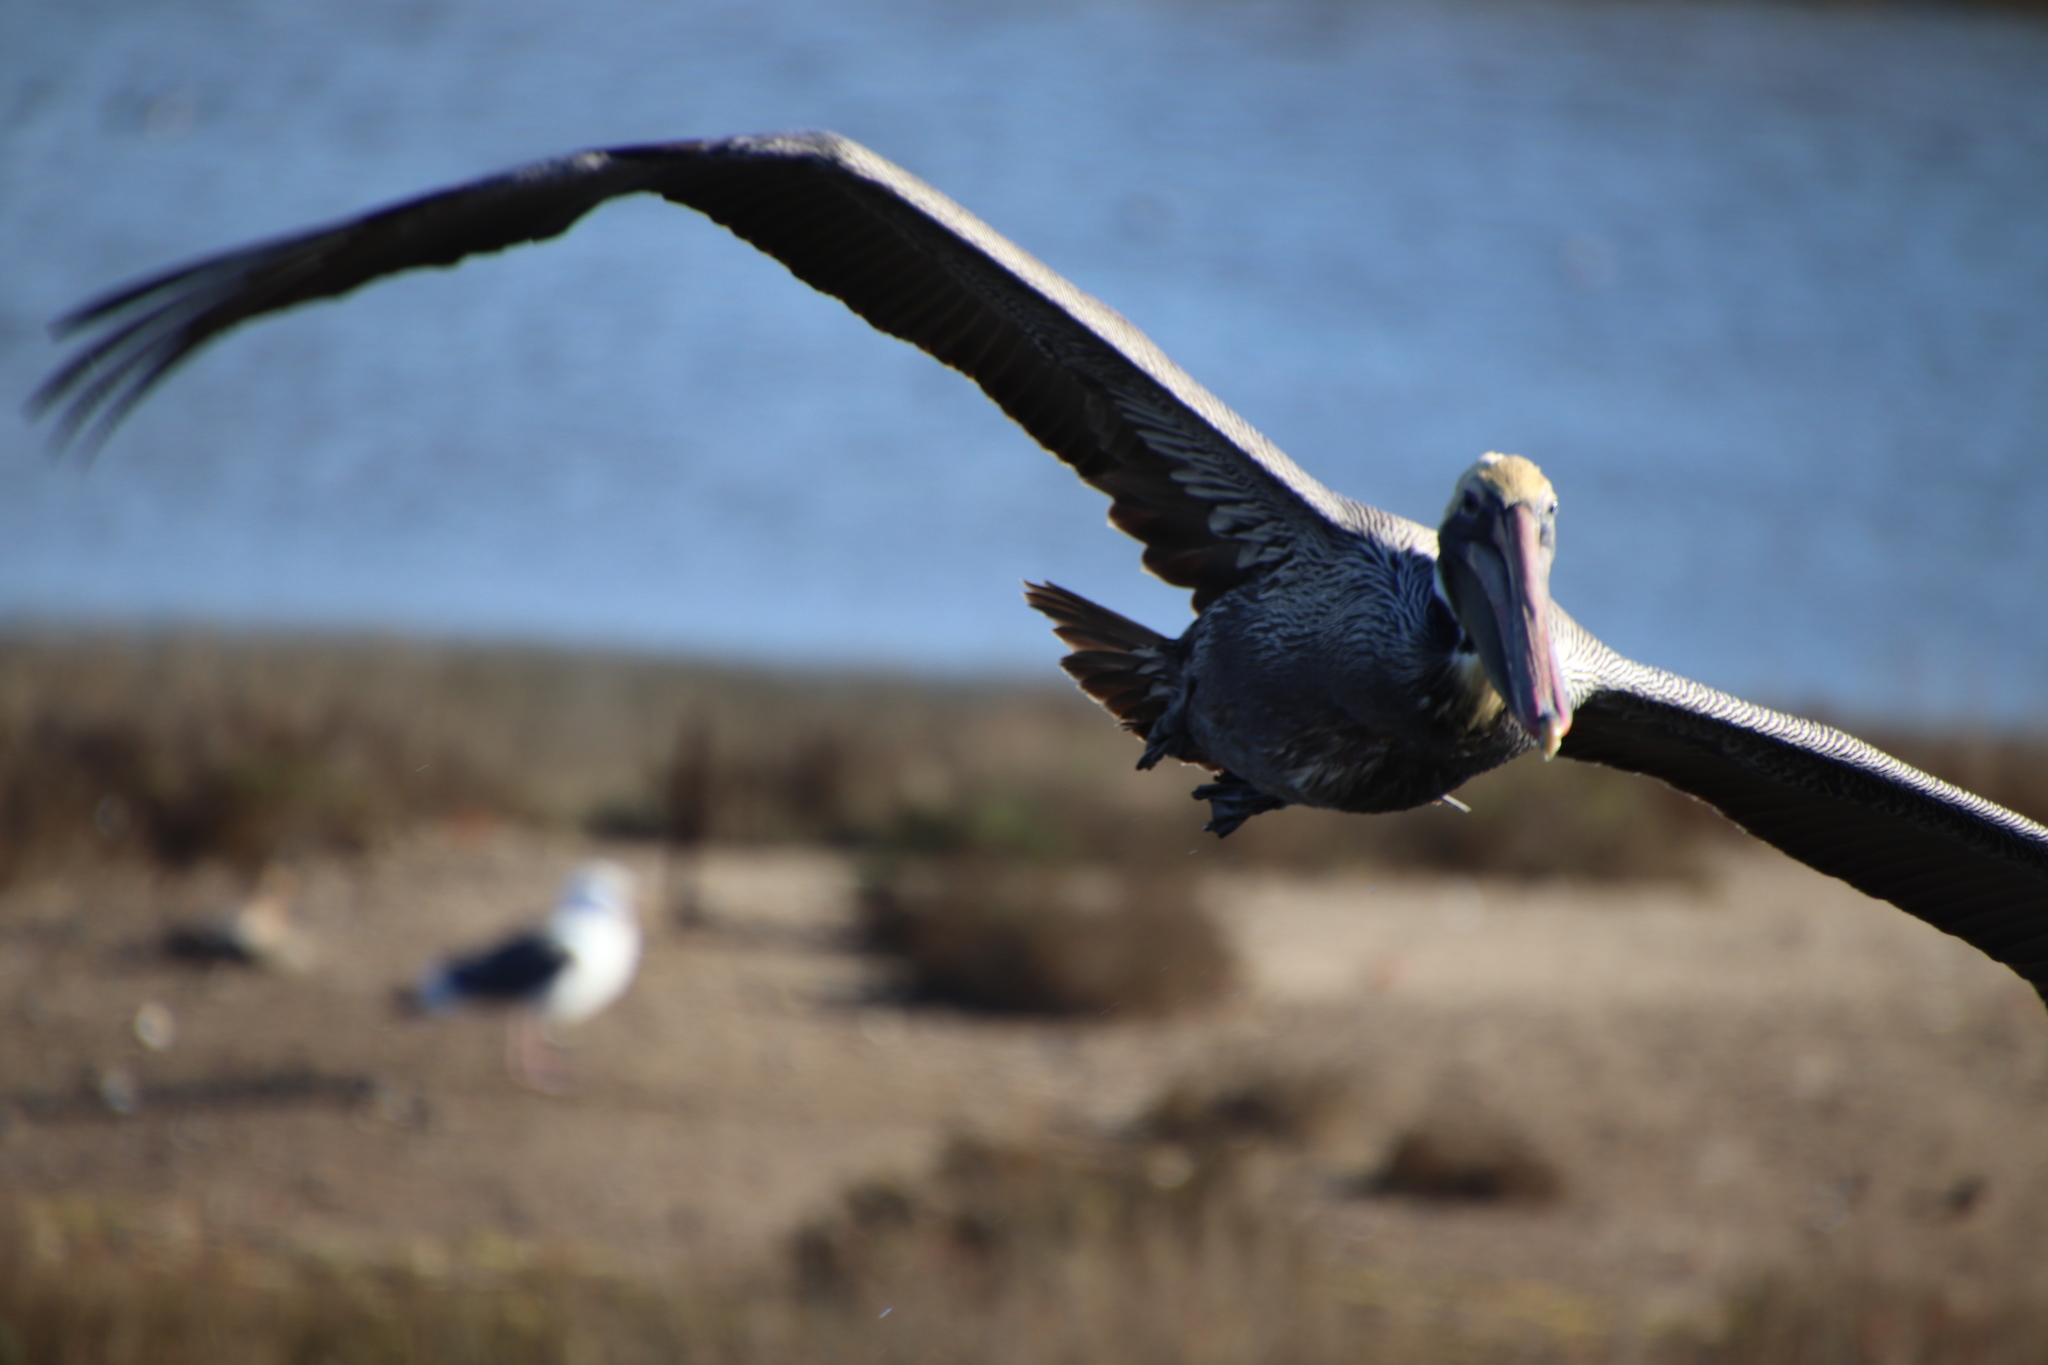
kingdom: Animalia
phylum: Chordata
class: Aves
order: Pelecaniformes
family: Pelecanidae
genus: Pelecanus
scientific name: Pelecanus occidentalis
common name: Brown pelican
